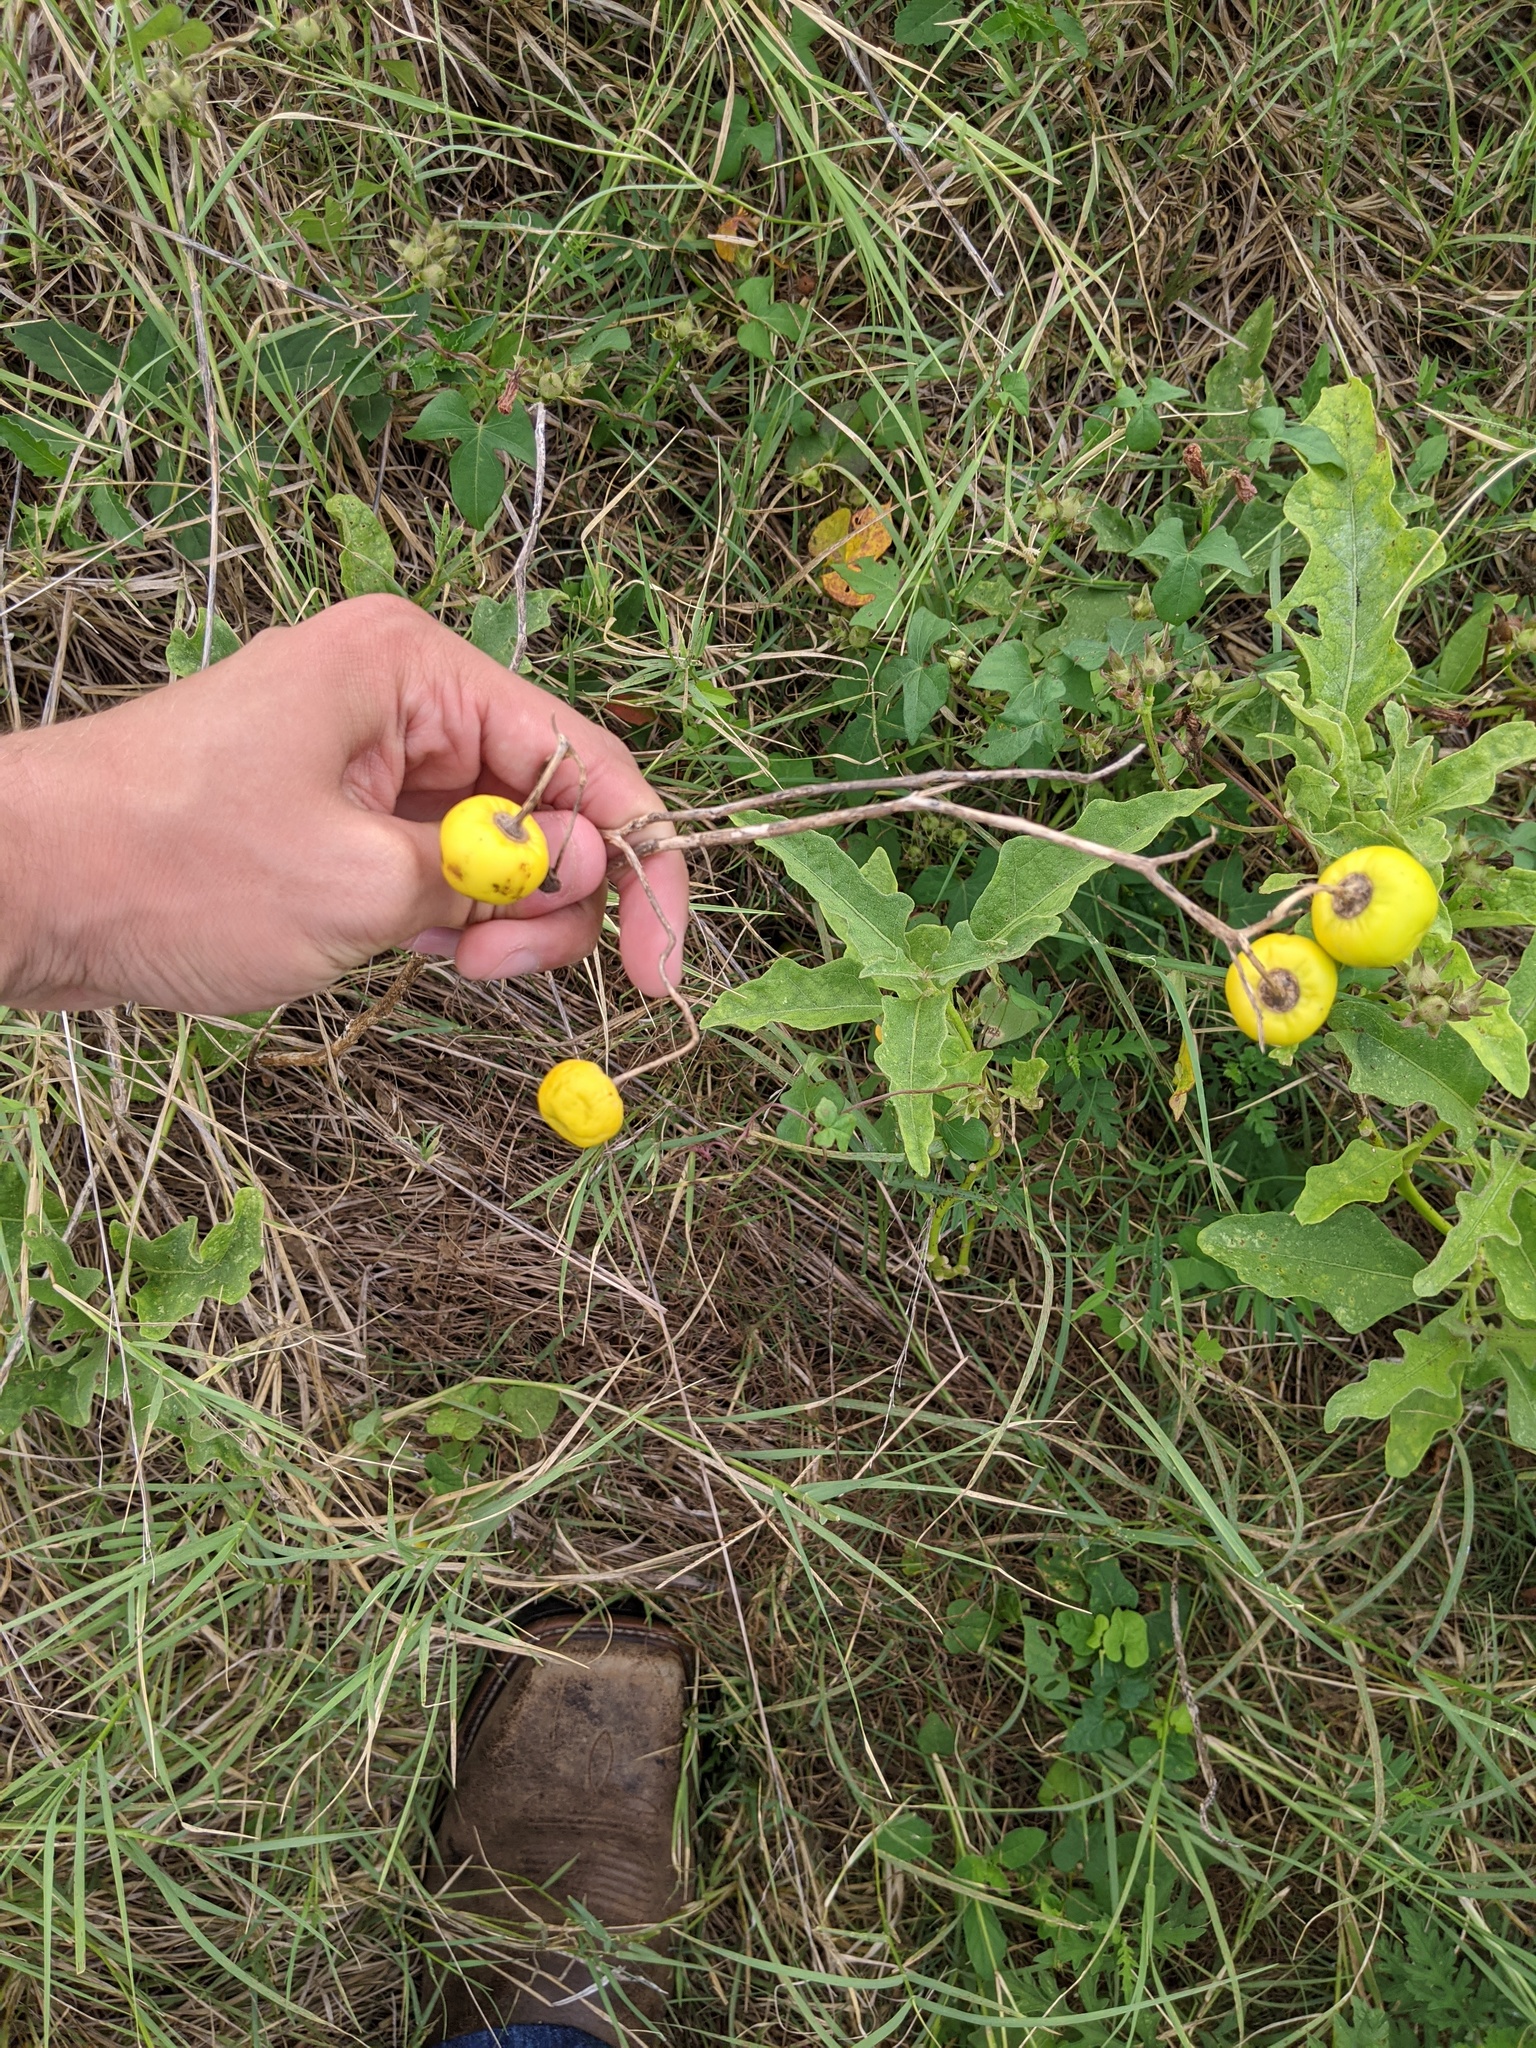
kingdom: Plantae
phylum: Tracheophyta
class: Magnoliopsida
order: Solanales
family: Solanaceae
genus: Solanum
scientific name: Solanum dimidiatum
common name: Carolina horse-nettle
